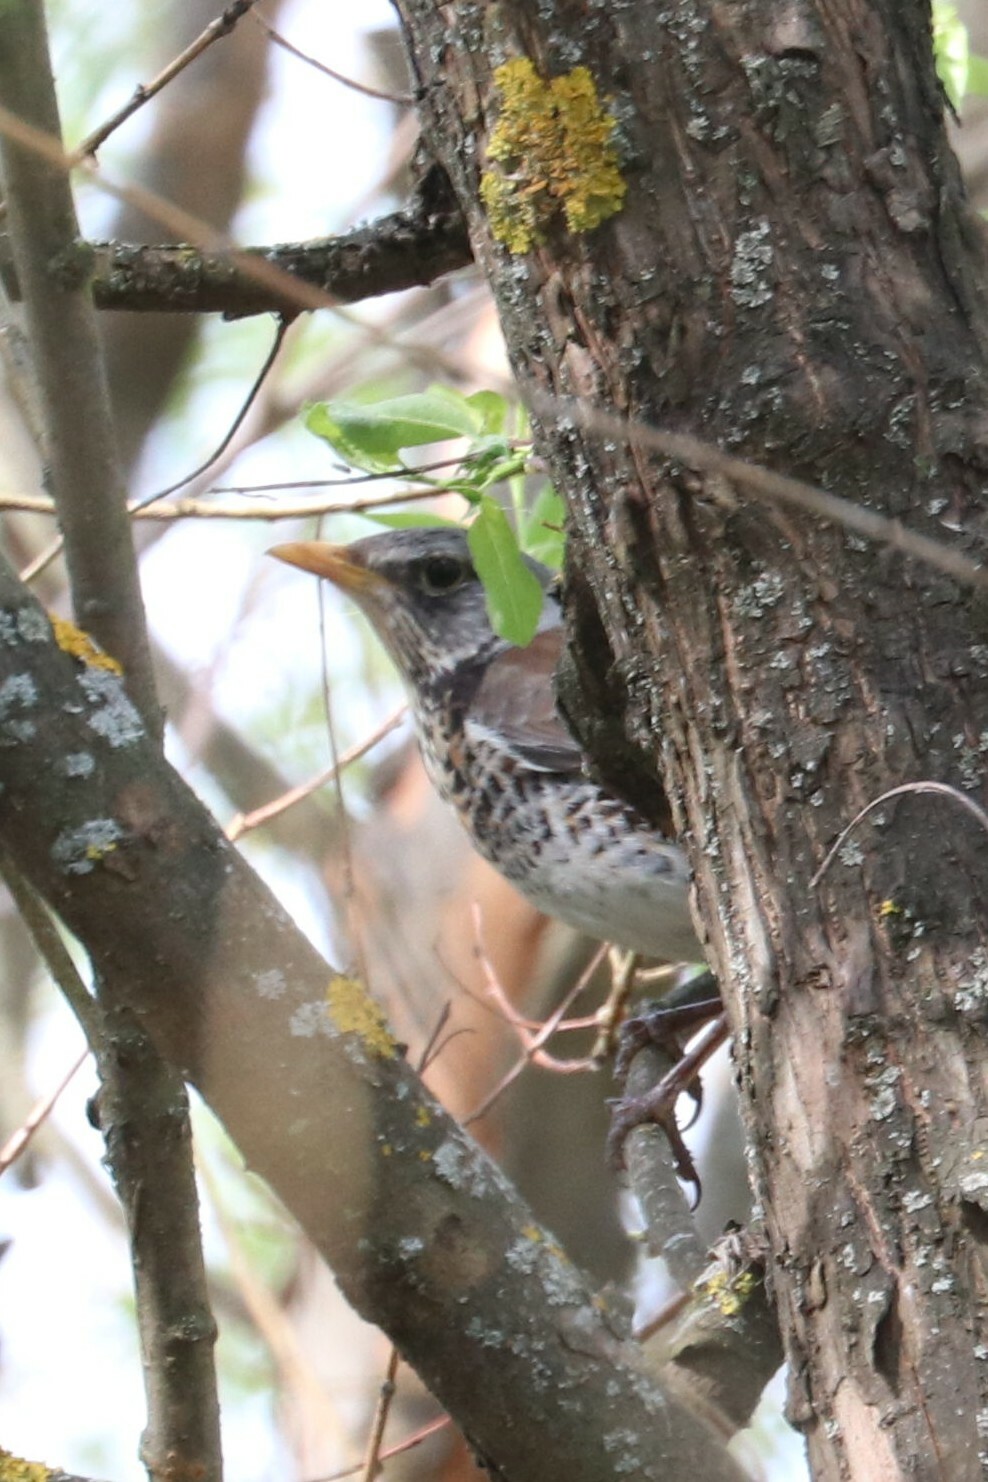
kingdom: Animalia
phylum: Chordata
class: Aves
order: Passeriformes
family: Turdidae
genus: Turdus
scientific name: Turdus pilaris
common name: Fieldfare
